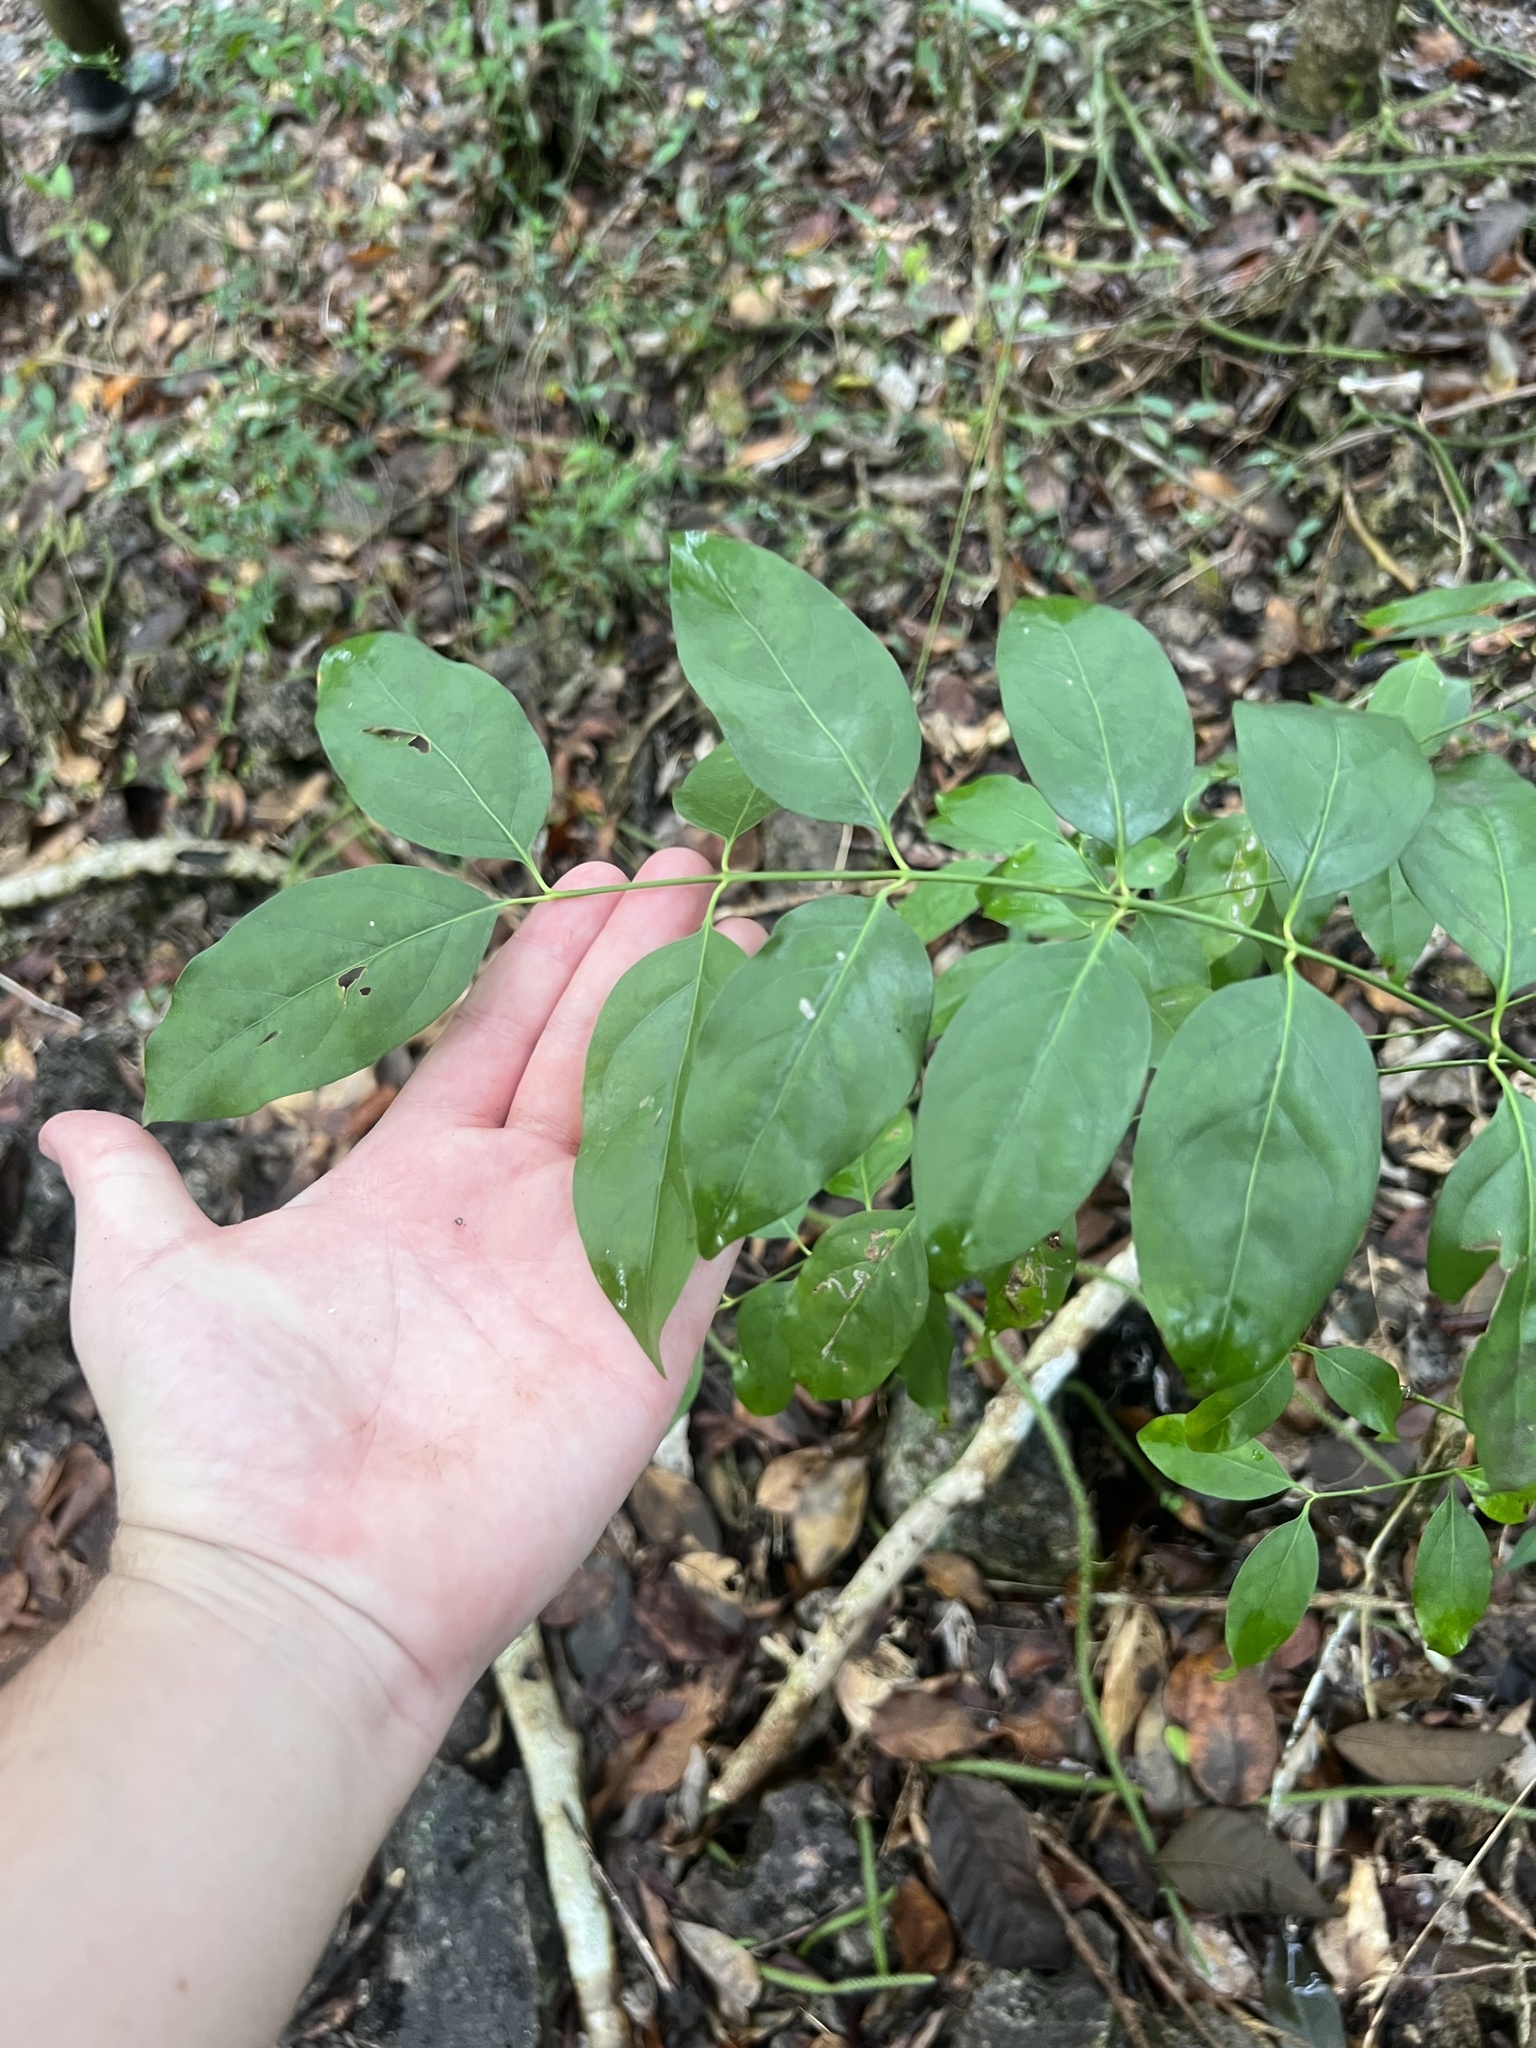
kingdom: Plantae
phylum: Tracheophyta
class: Magnoliopsida
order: Gentianales
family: Rubiaceae
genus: Chiococca
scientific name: Chiococca alba
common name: Snowberry
